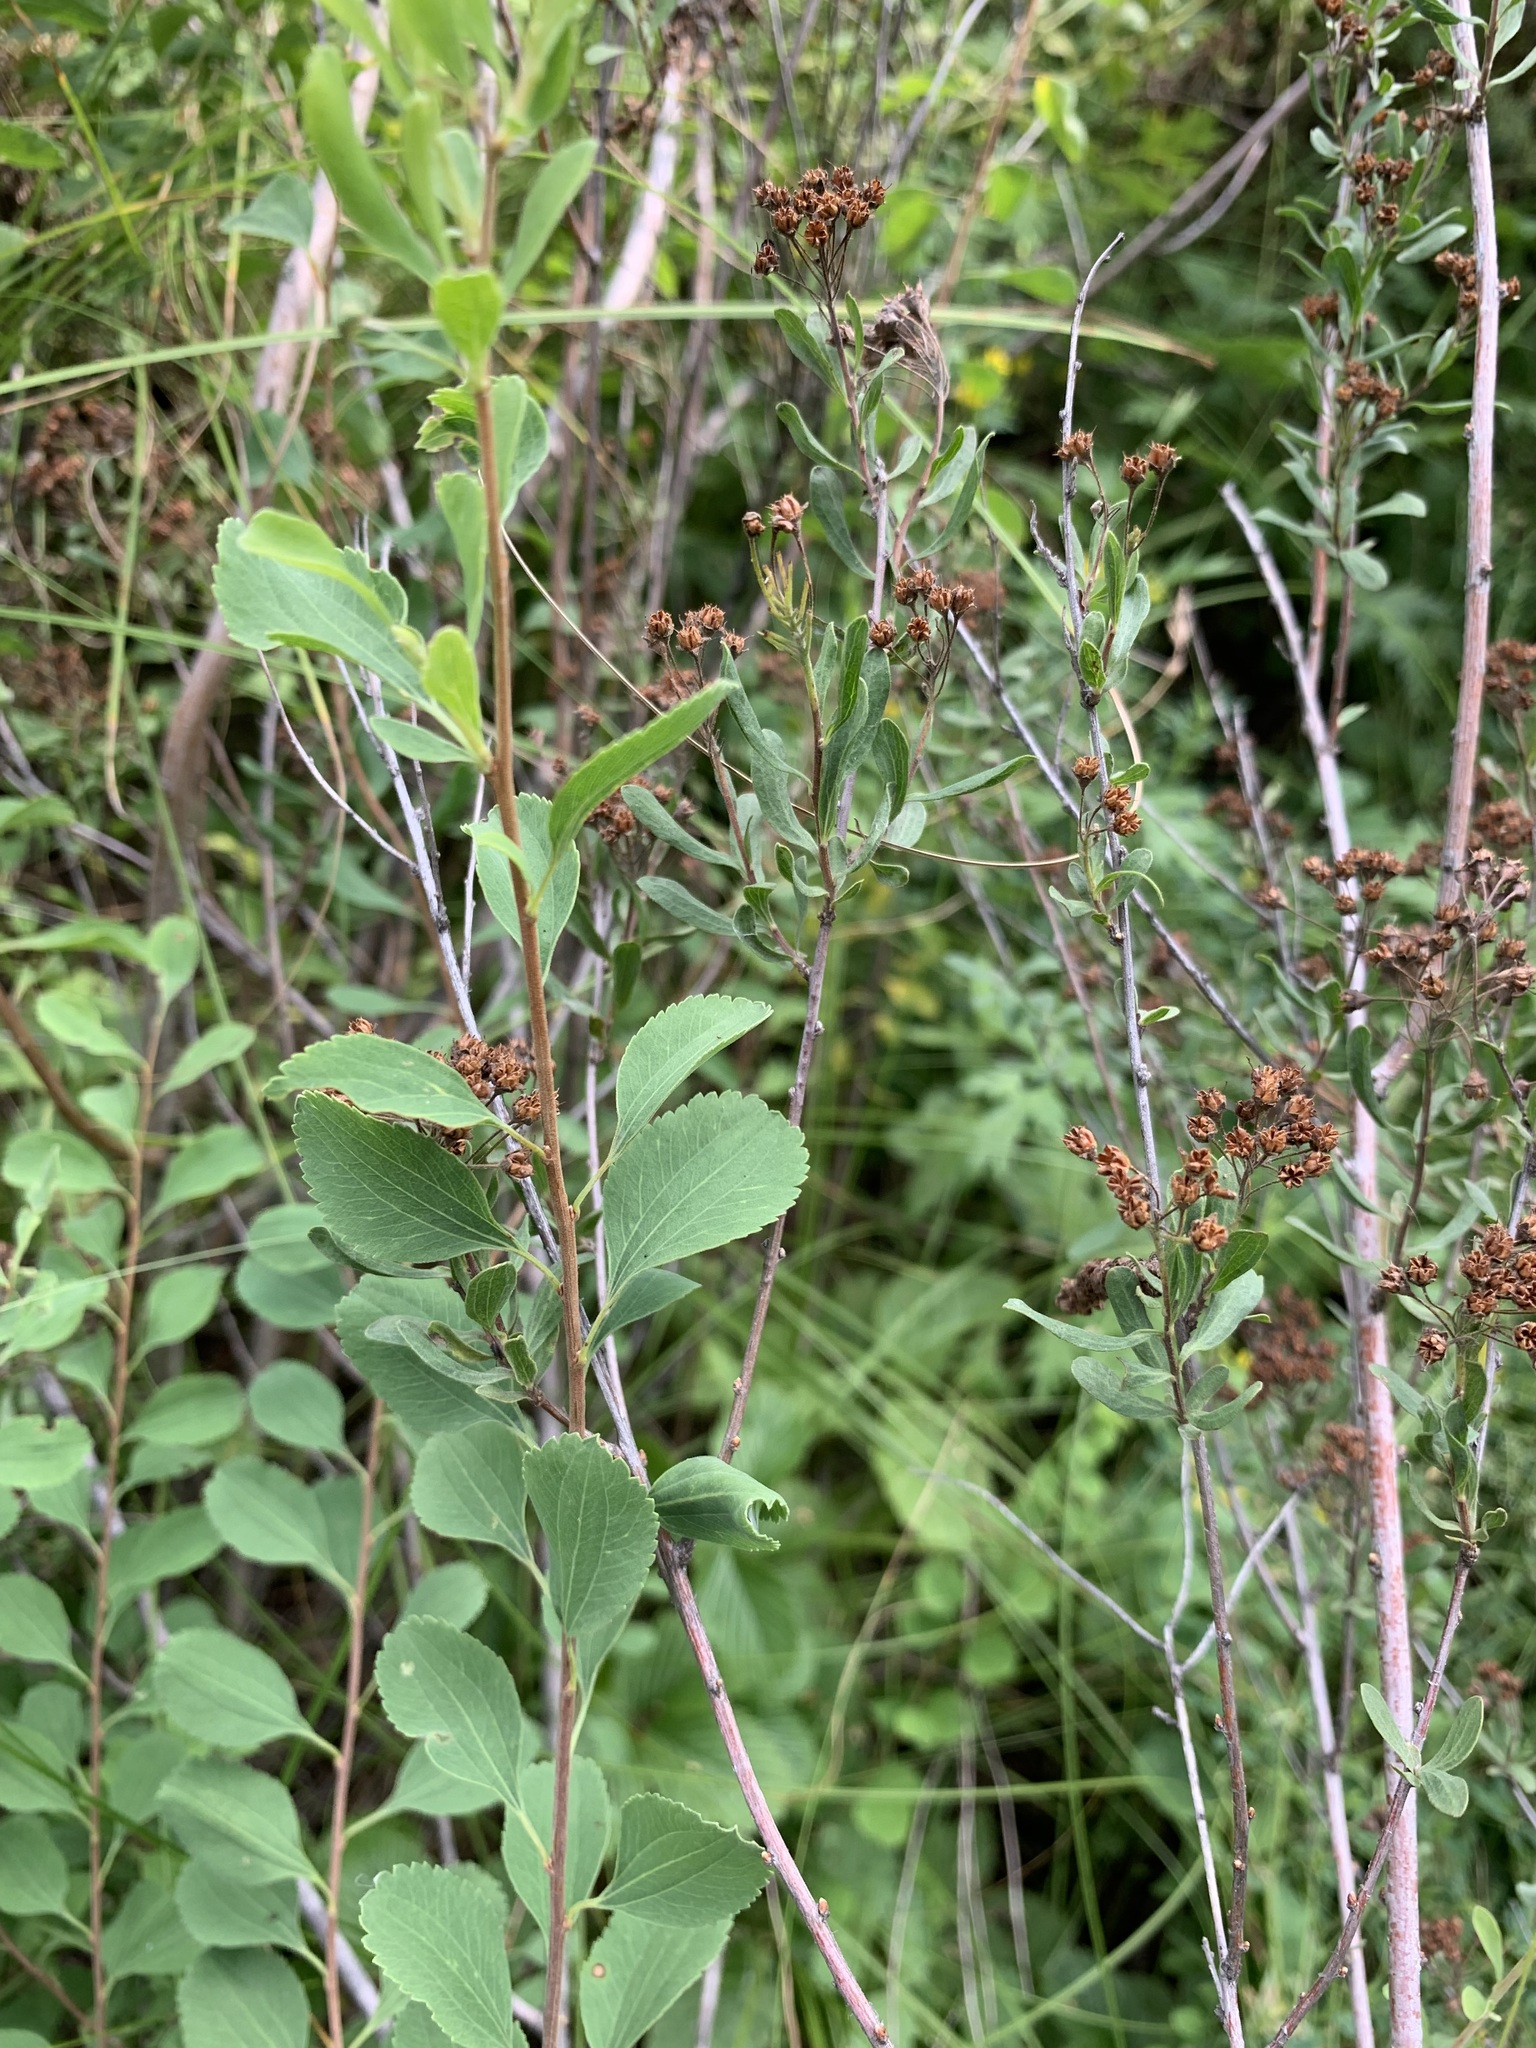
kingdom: Plantae
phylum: Tracheophyta
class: Magnoliopsida
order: Rosales
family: Rosaceae
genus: Spiraea
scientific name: Spiraea crenata
